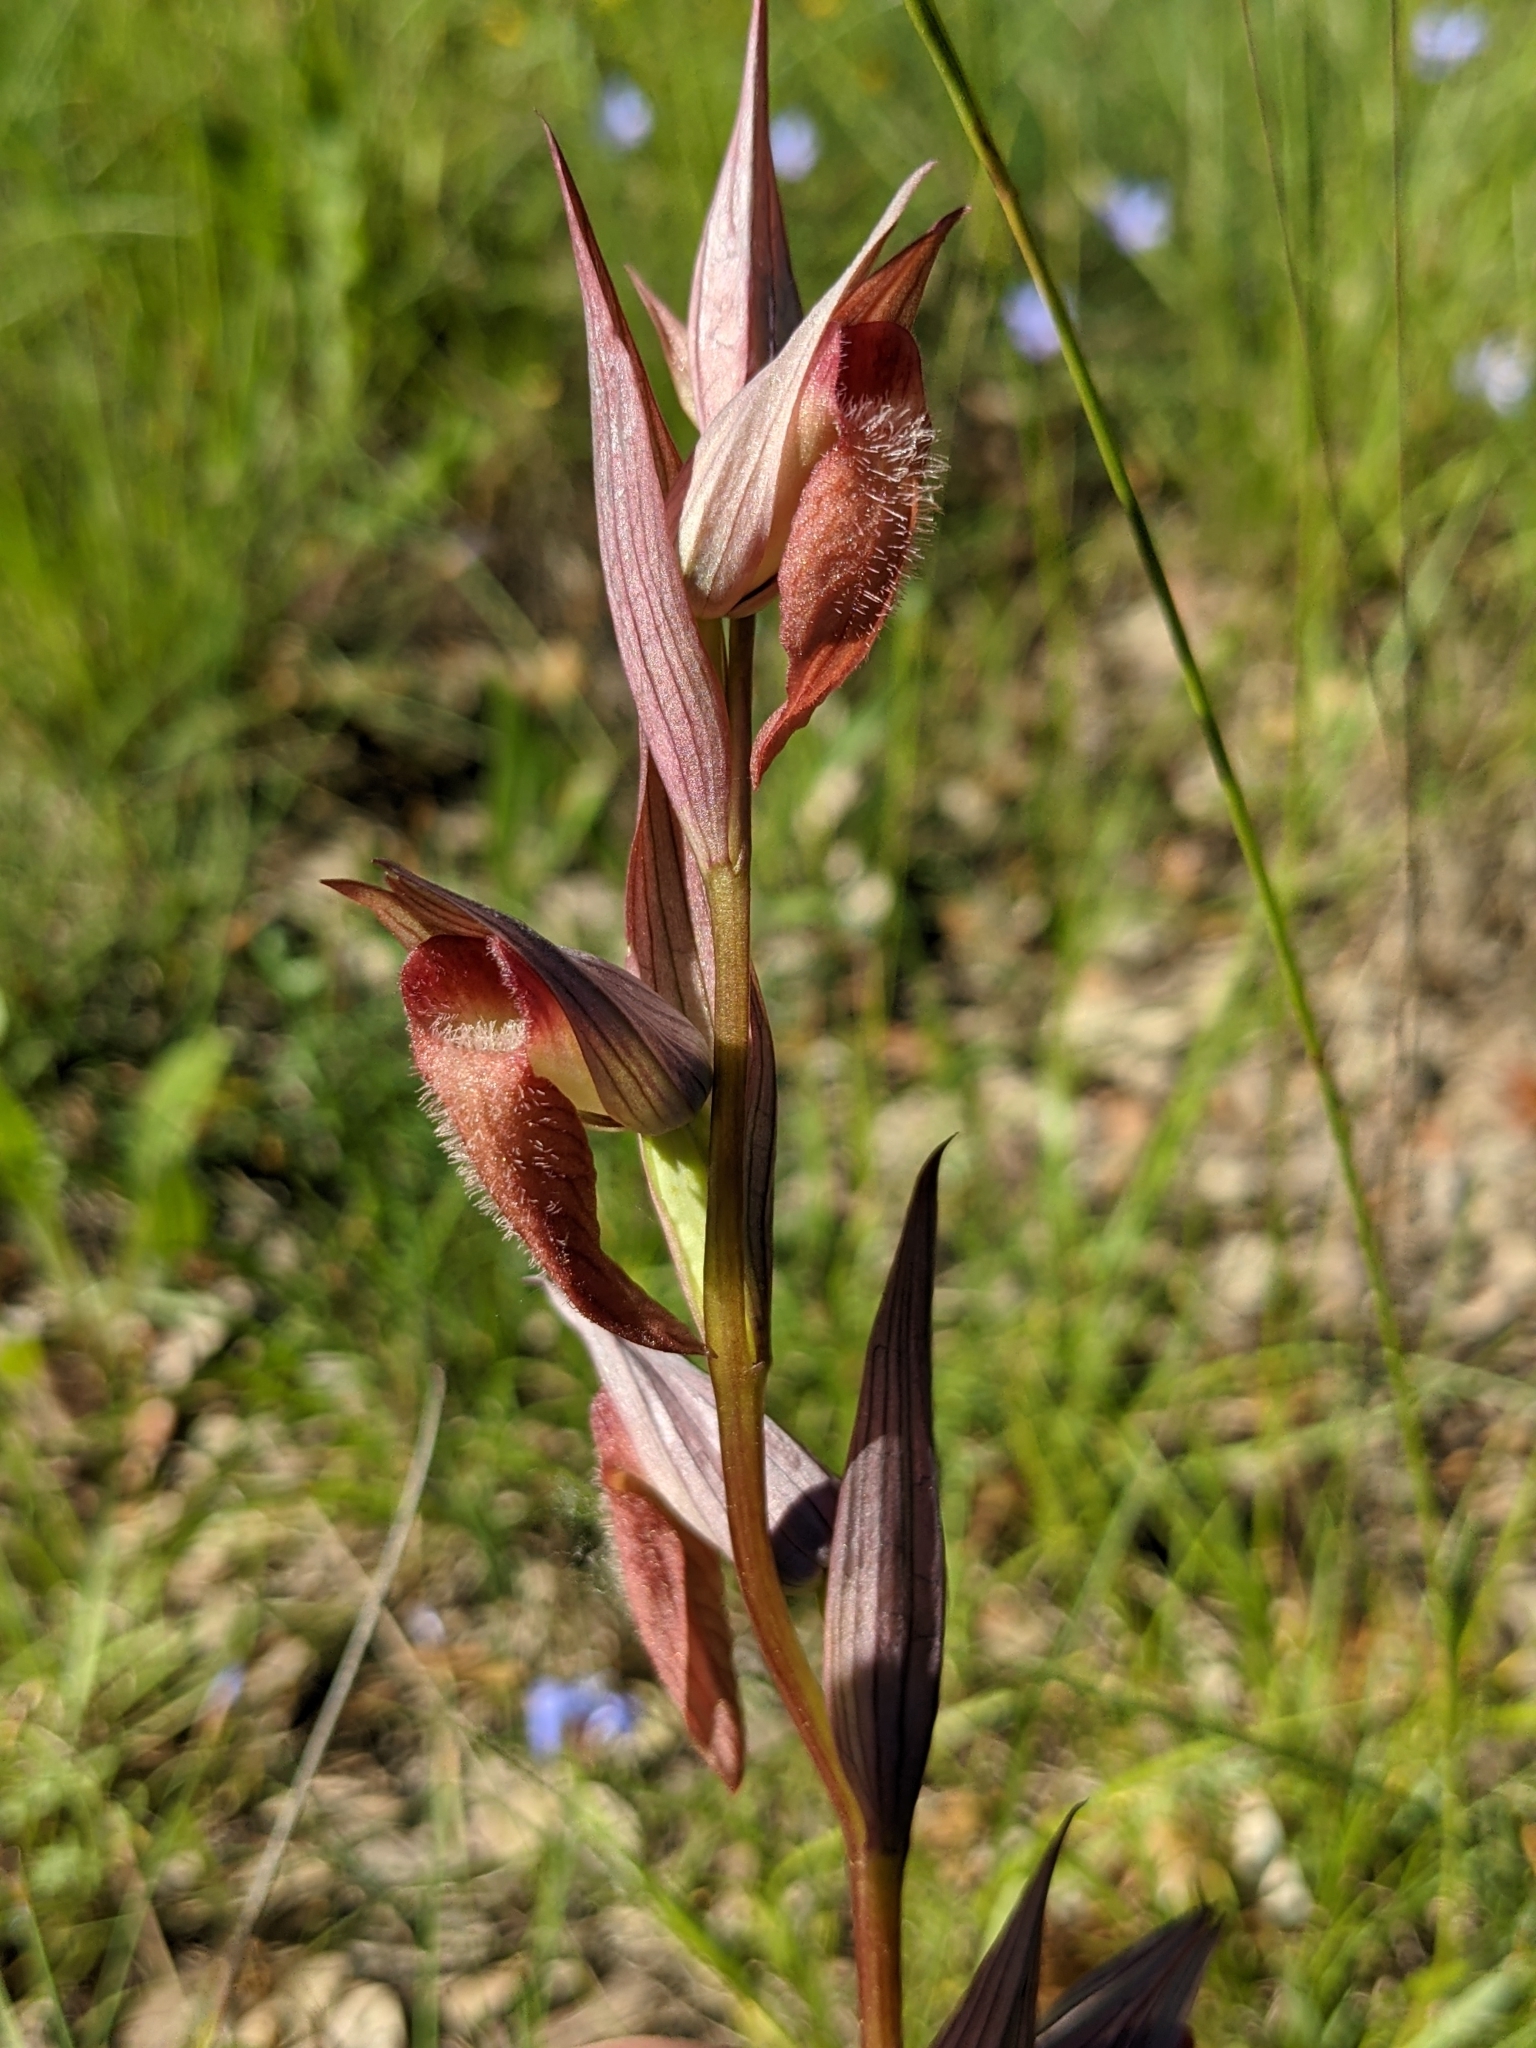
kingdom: Plantae
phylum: Tracheophyta
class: Liliopsida
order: Asparagales
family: Orchidaceae
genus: Serapias
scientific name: Serapias vomeracea
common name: Long-lipped tongue-orchid
